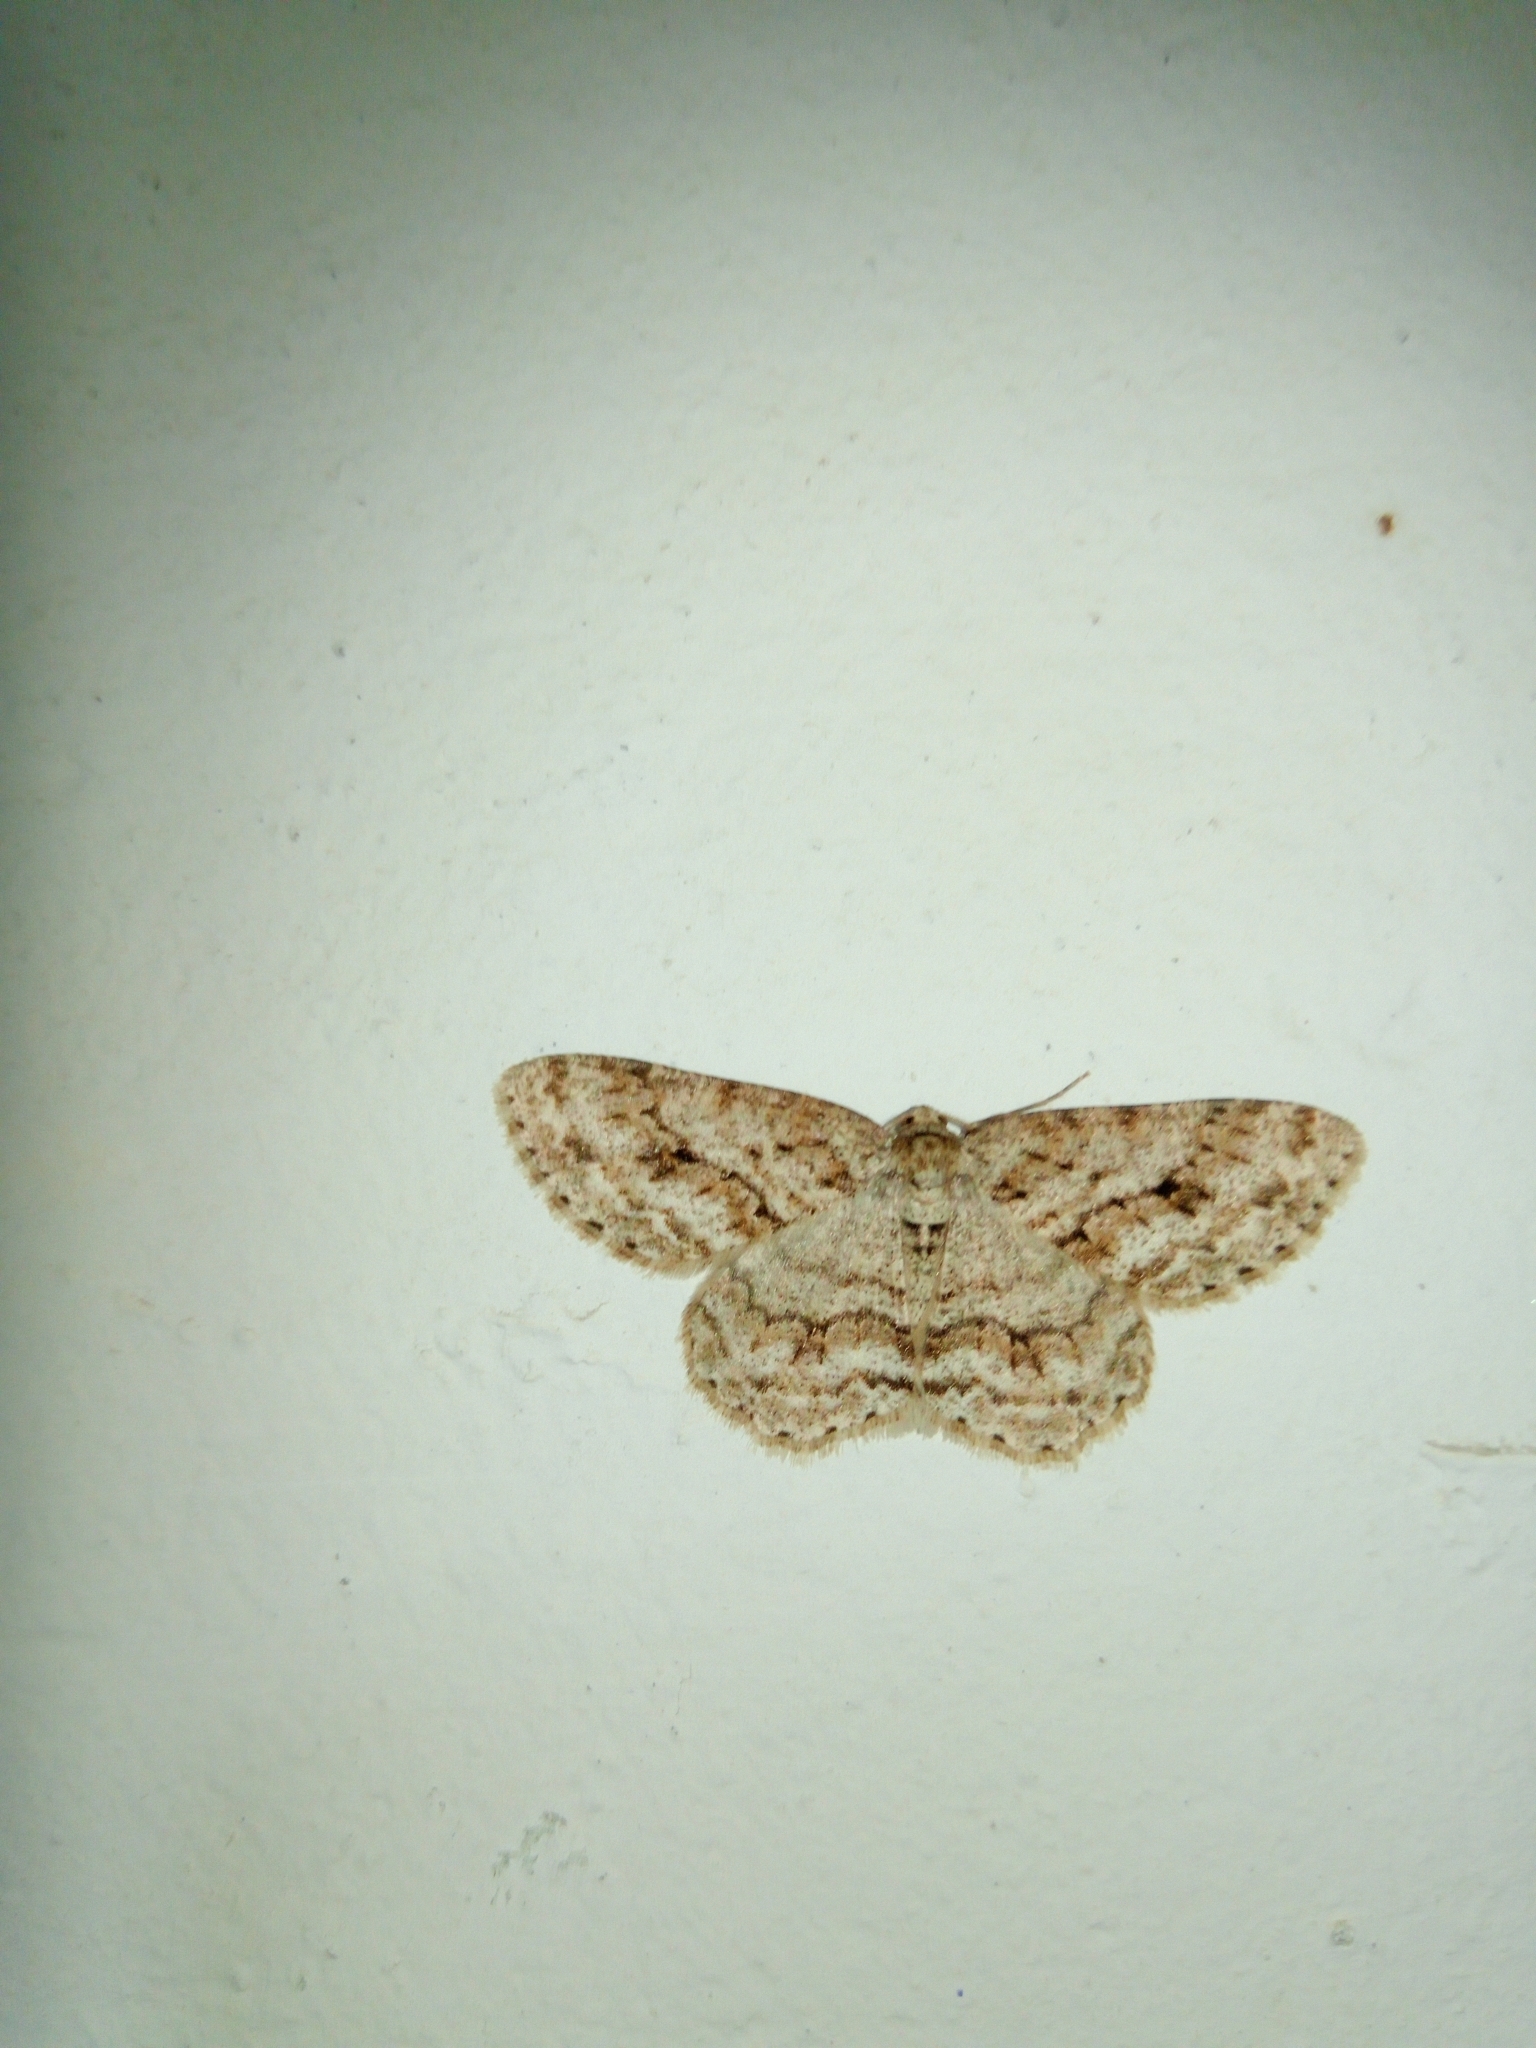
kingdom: Animalia
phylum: Arthropoda
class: Insecta
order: Lepidoptera
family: Geometridae
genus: Ectropis
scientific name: Ectropis crepuscularia
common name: Engrailed
